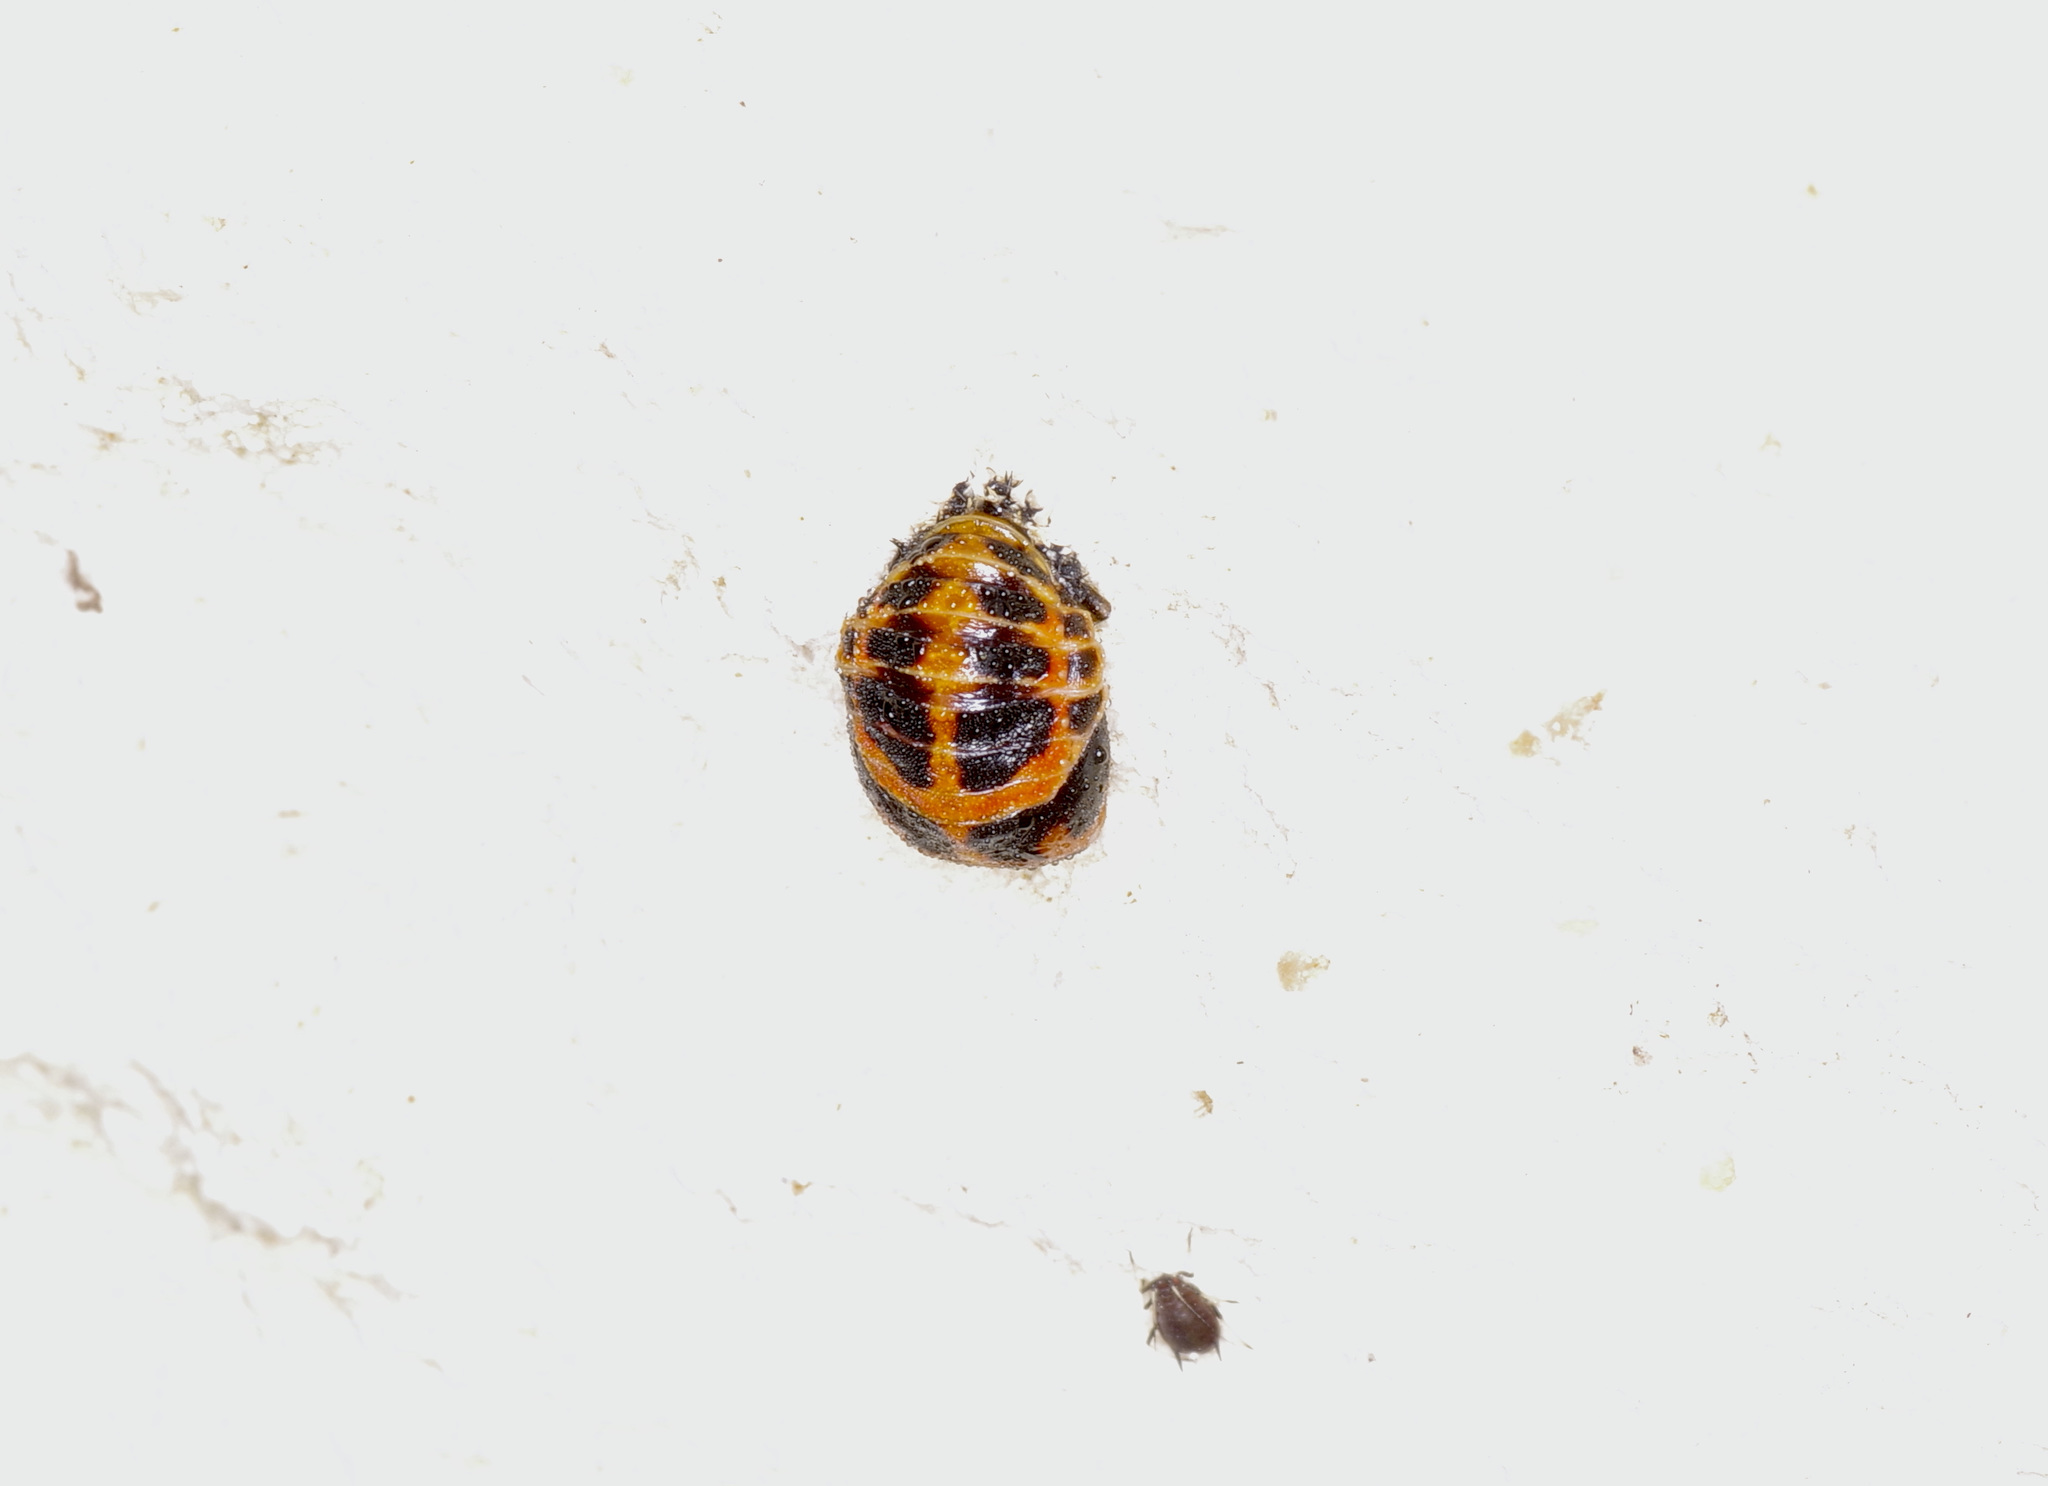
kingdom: Animalia
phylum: Arthropoda
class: Insecta
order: Coleoptera
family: Coccinellidae
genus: Harmonia
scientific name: Harmonia axyridis
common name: Harlequin ladybird
